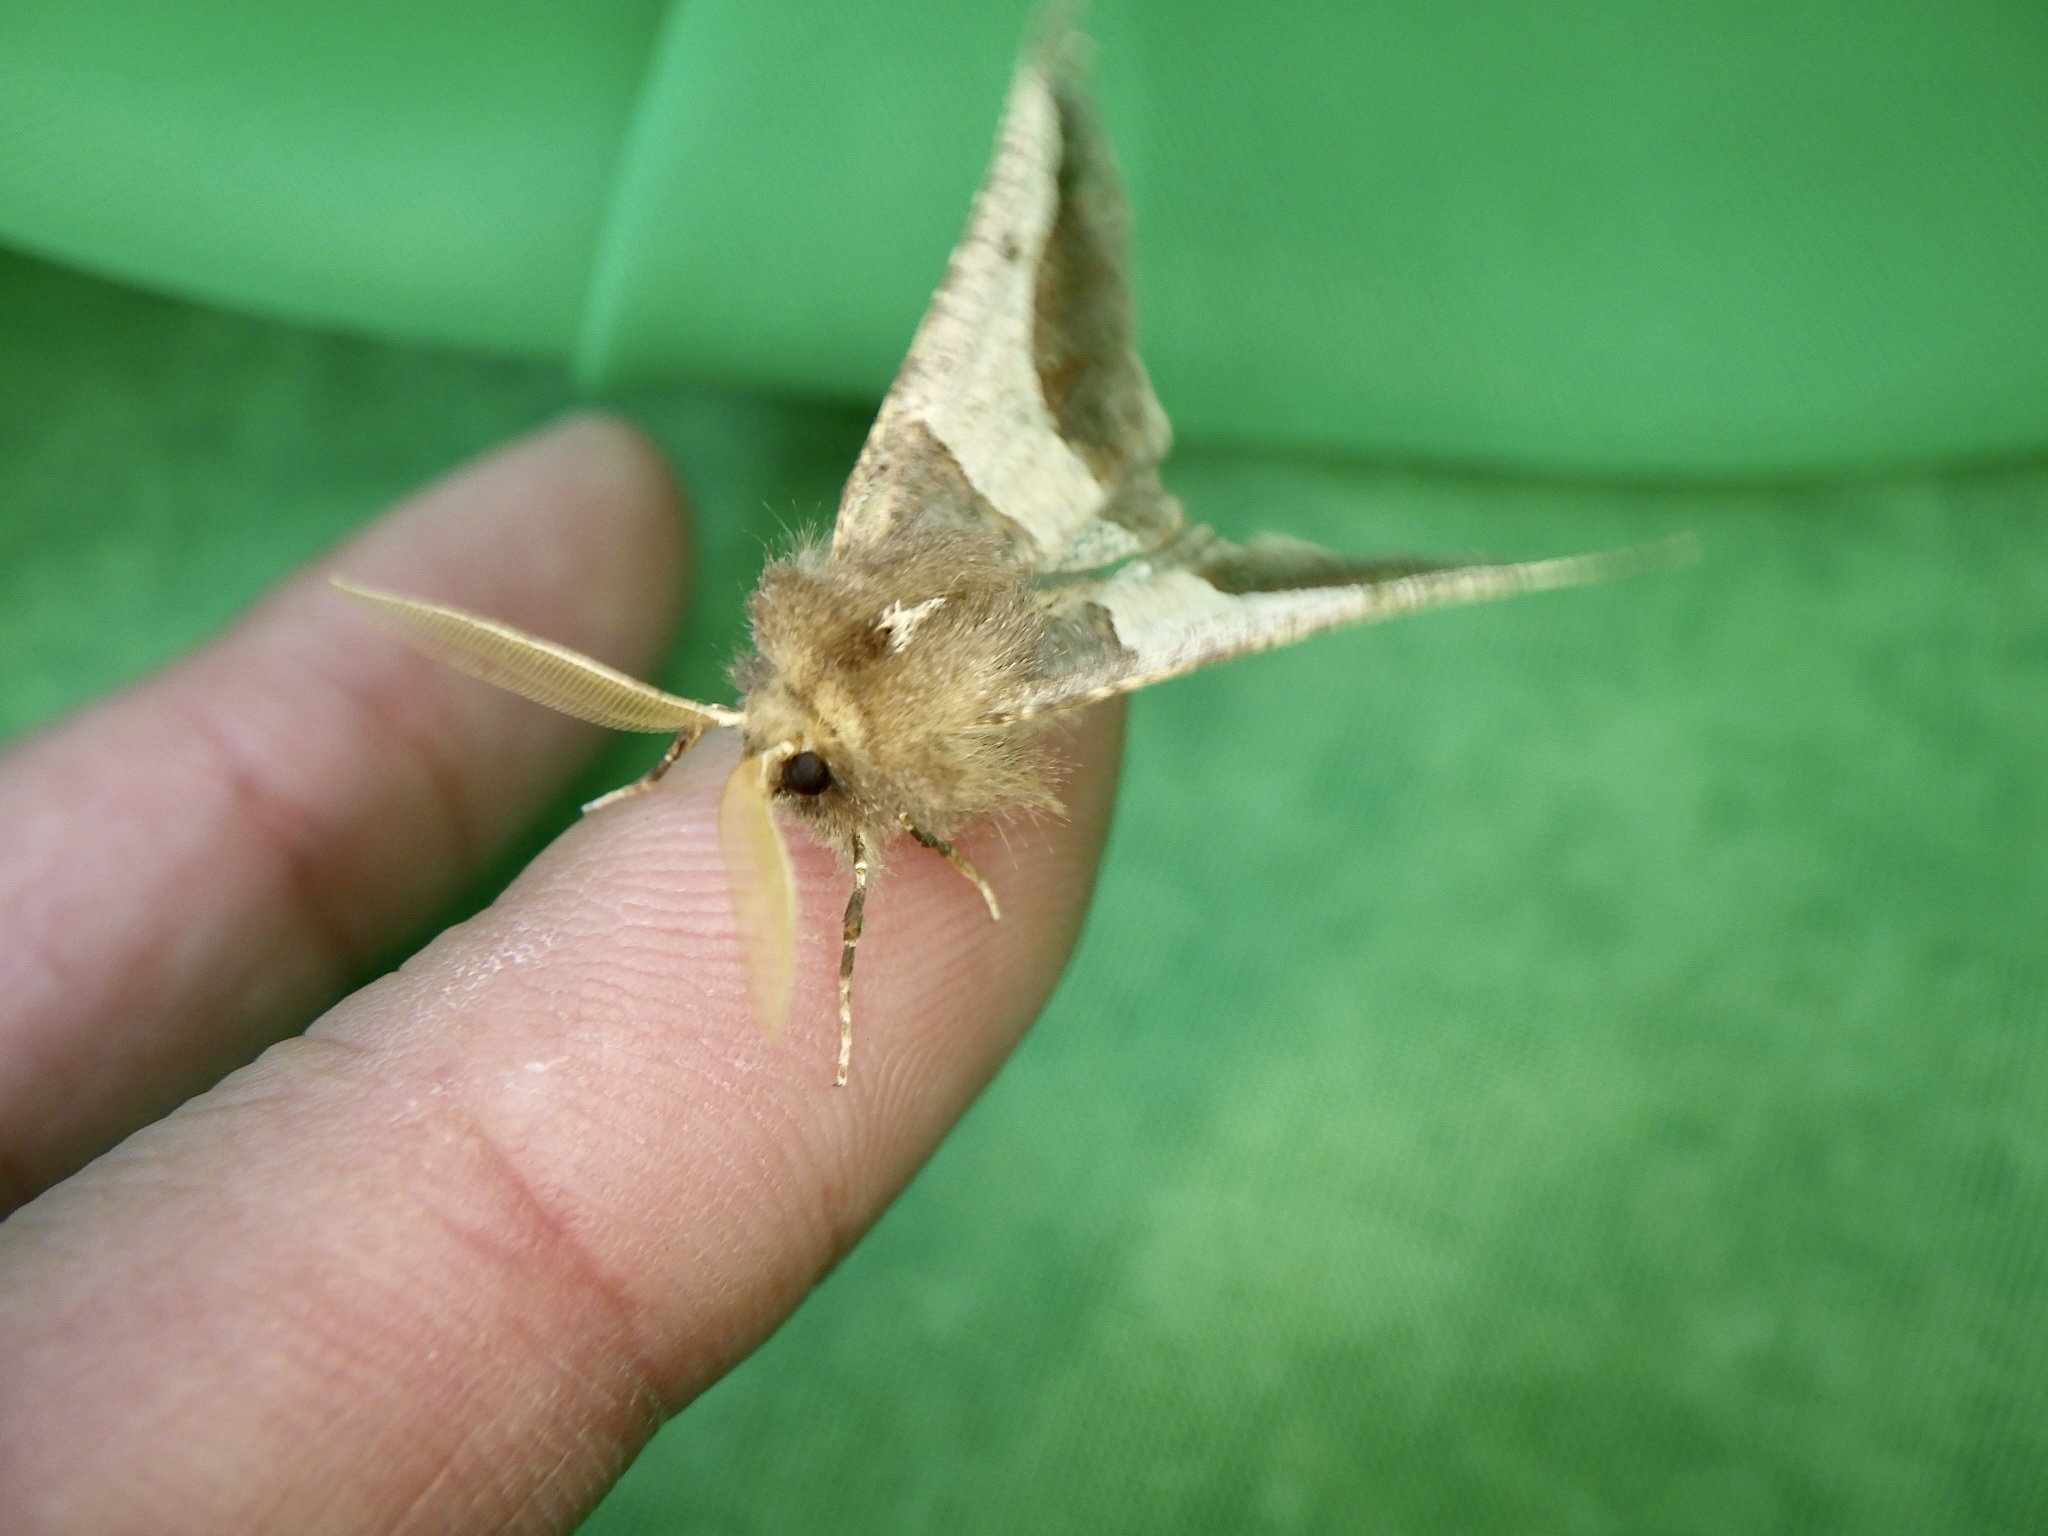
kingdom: Animalia
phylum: Arthropoda
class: Insecta
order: Lepidoptera
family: Geometridae
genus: Wilemania
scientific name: Wilemania nitobei
